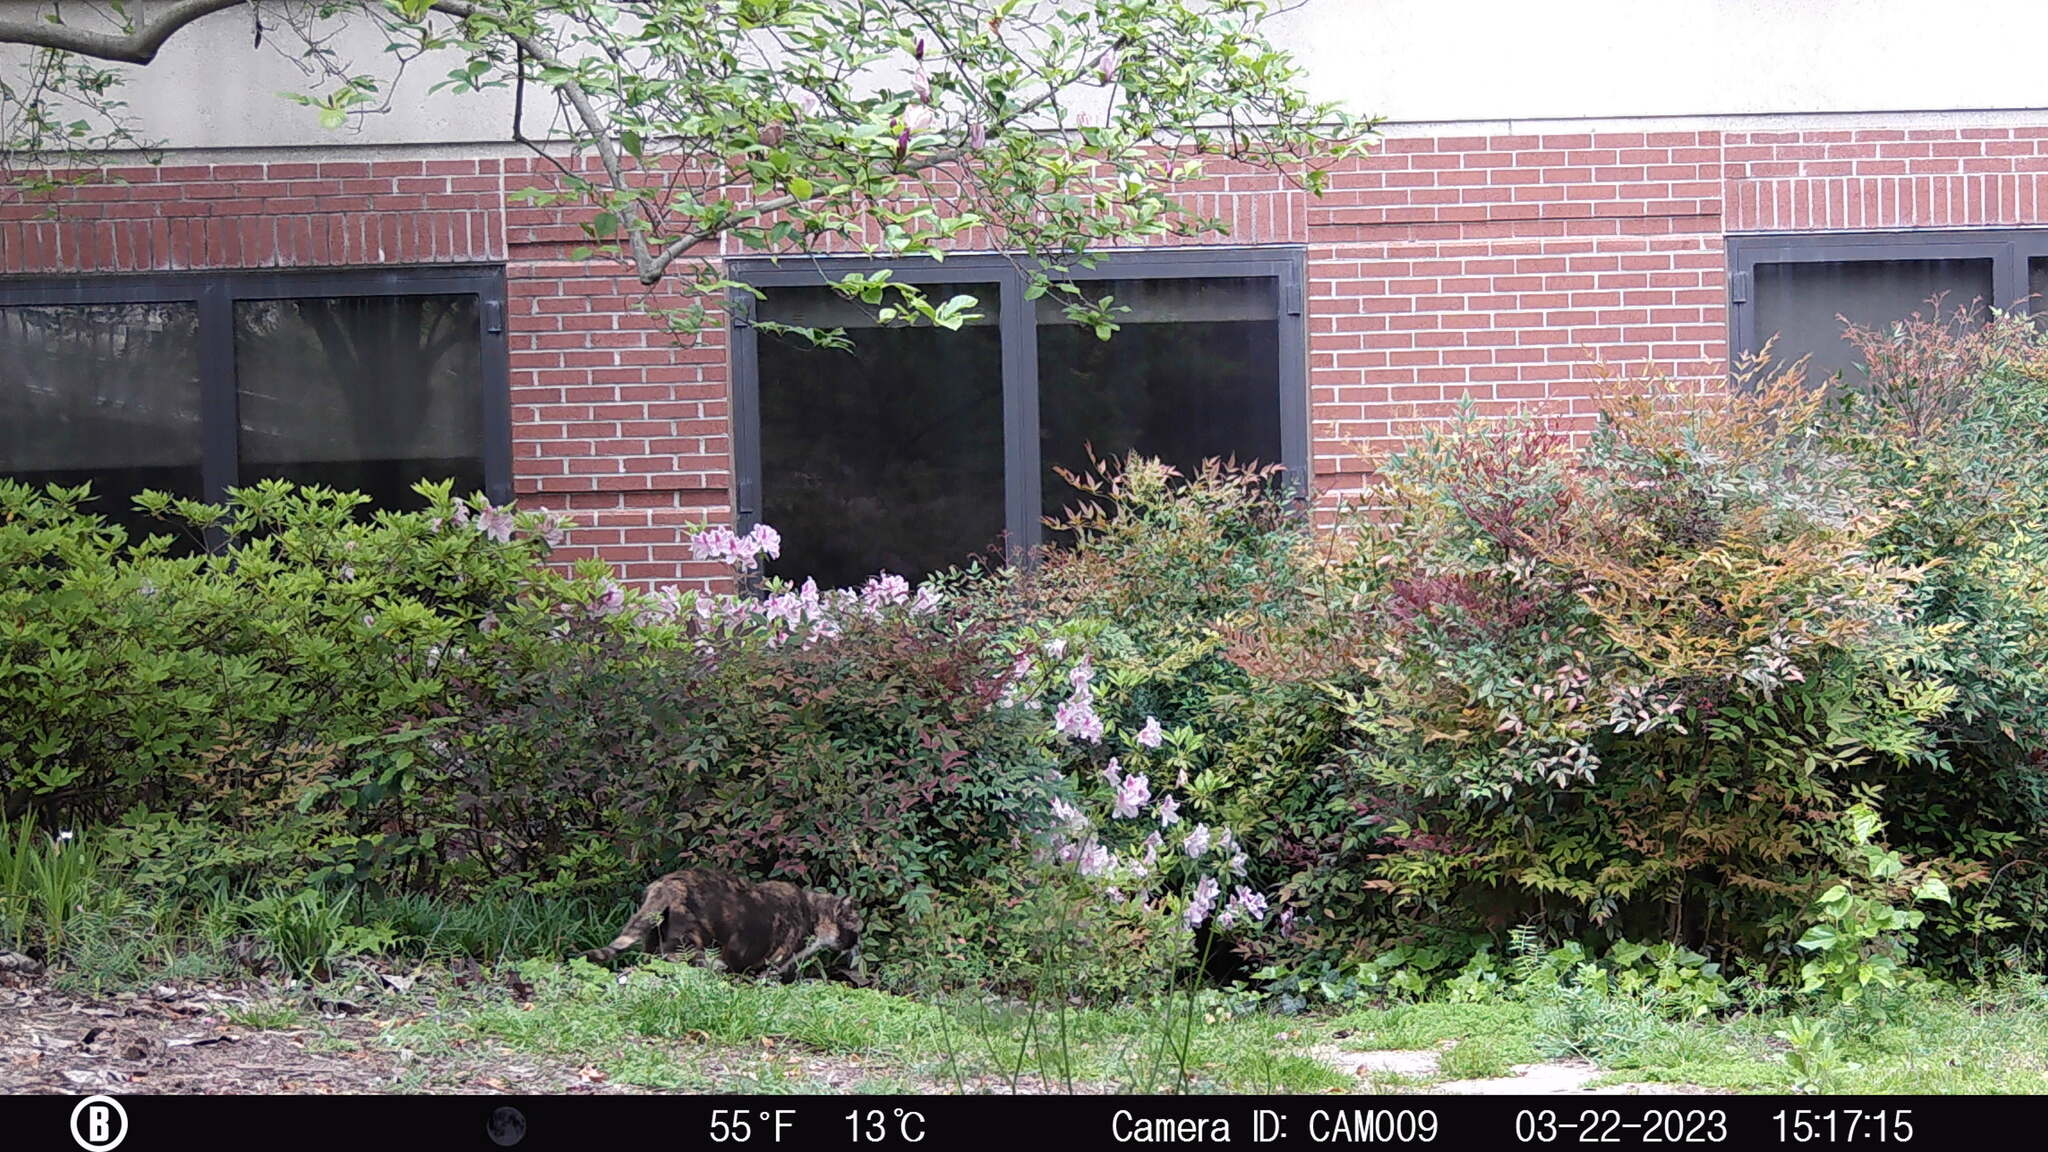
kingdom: Animalia
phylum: Chordata
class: Mammalia
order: Carnivora
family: Felidae
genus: Felis
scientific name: Felis catus
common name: Domestic cat
